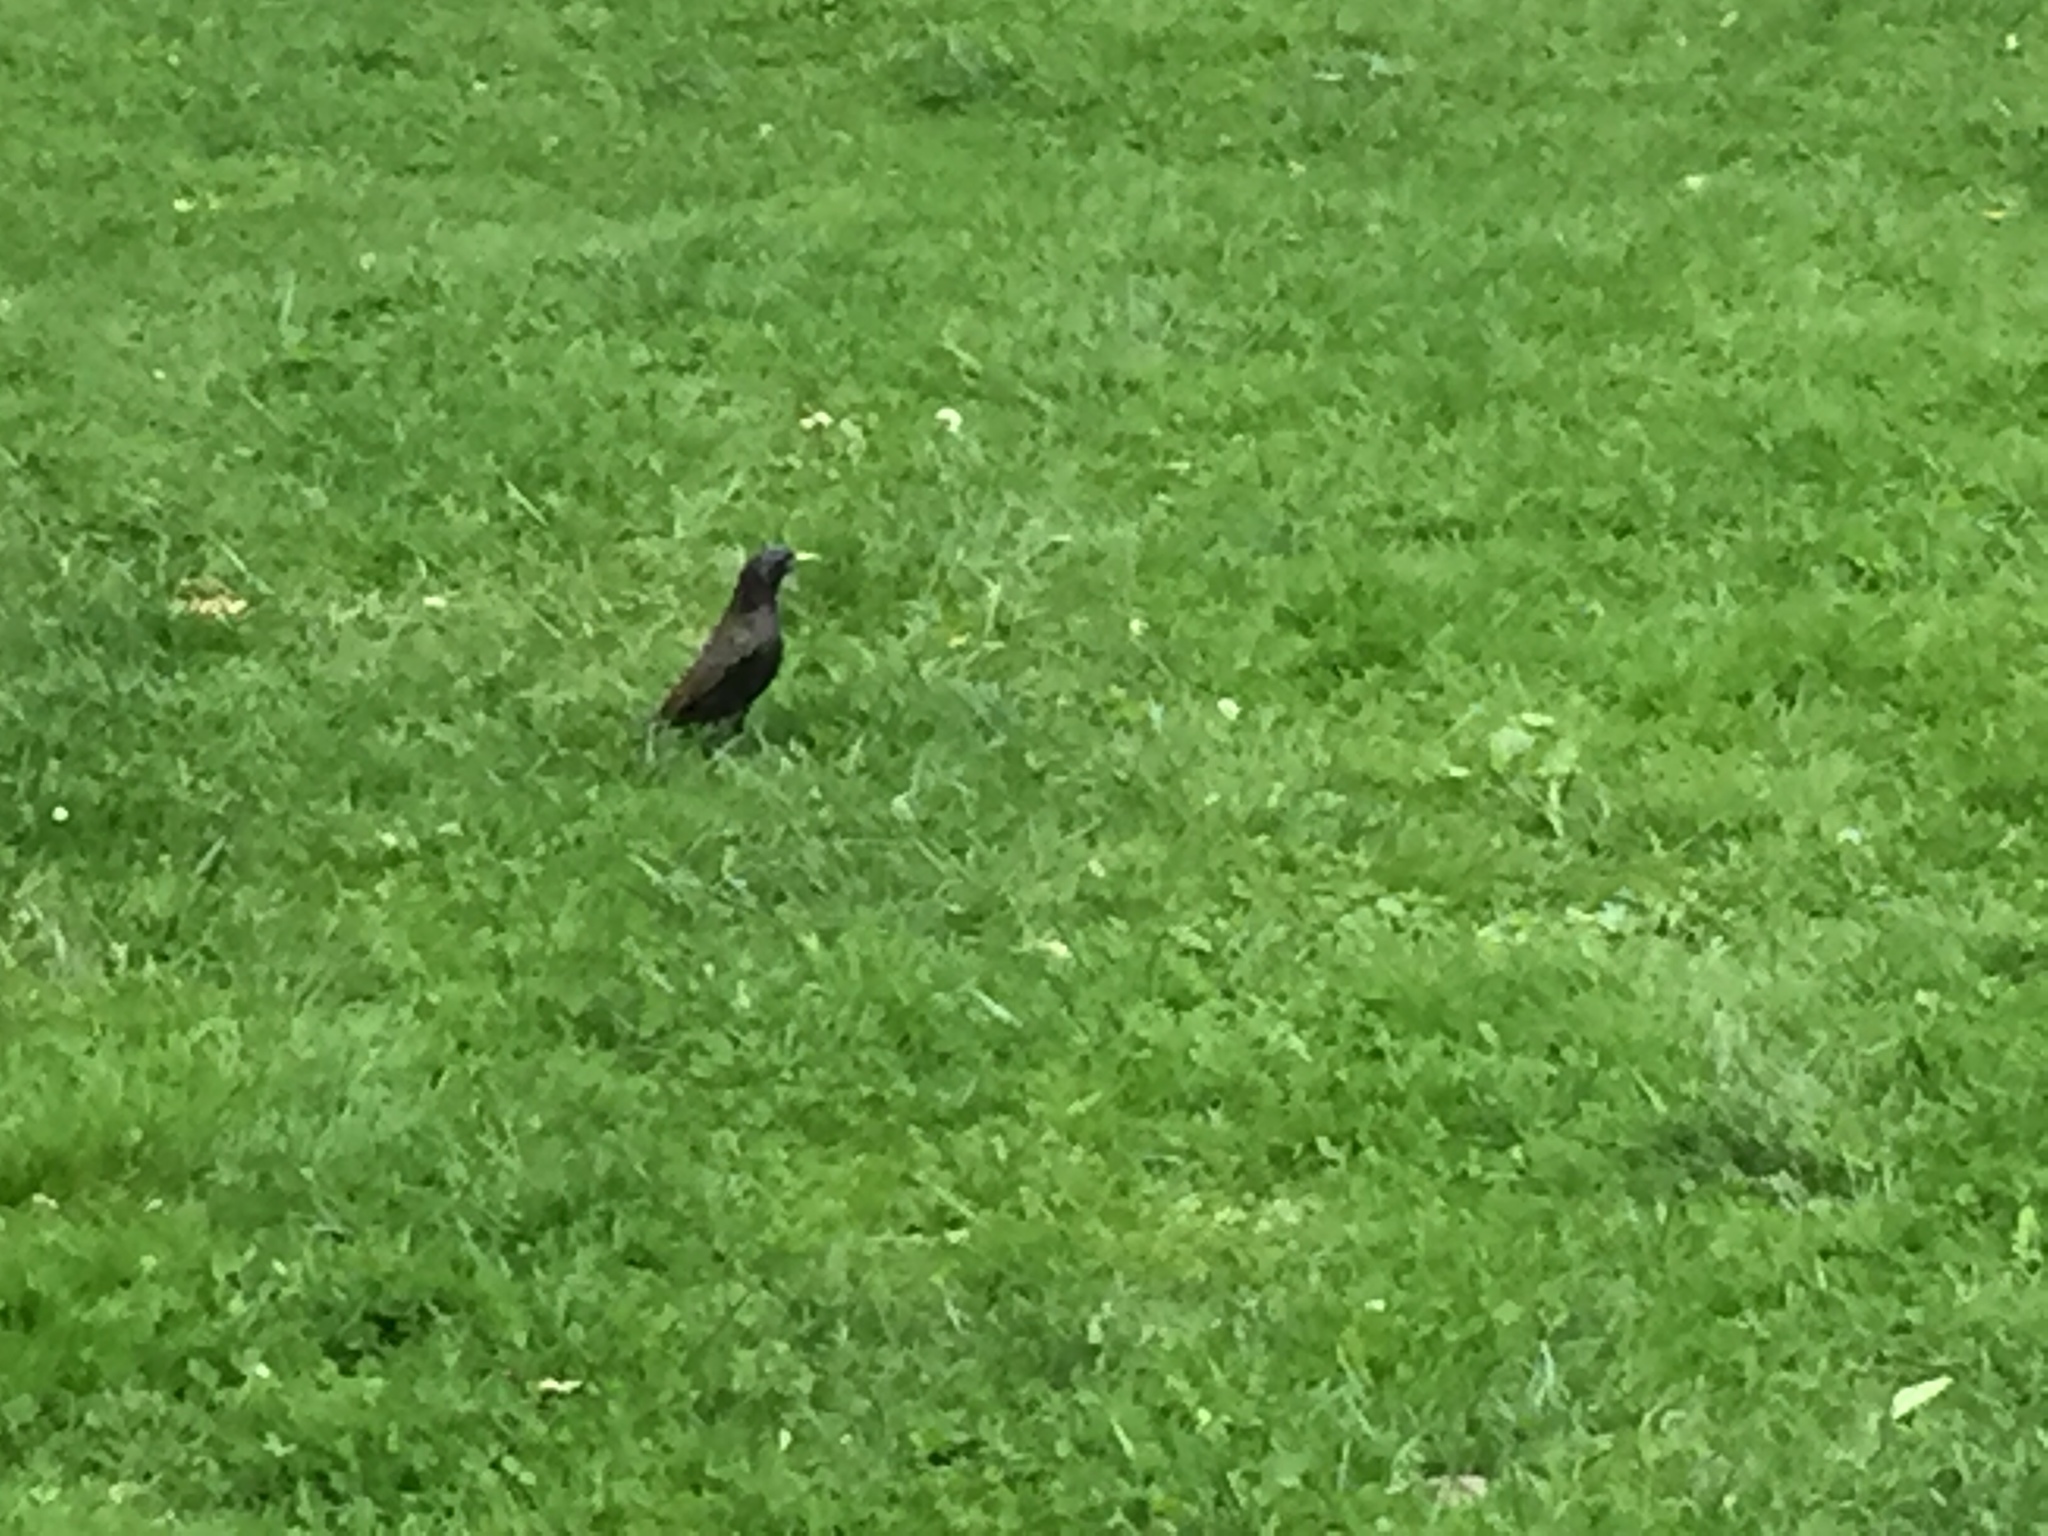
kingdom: Animalia
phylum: Chordata
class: Aves
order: Passeriformes
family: Sturnidae
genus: Sturnus
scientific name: Sturnus vulgaris
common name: Common starling
